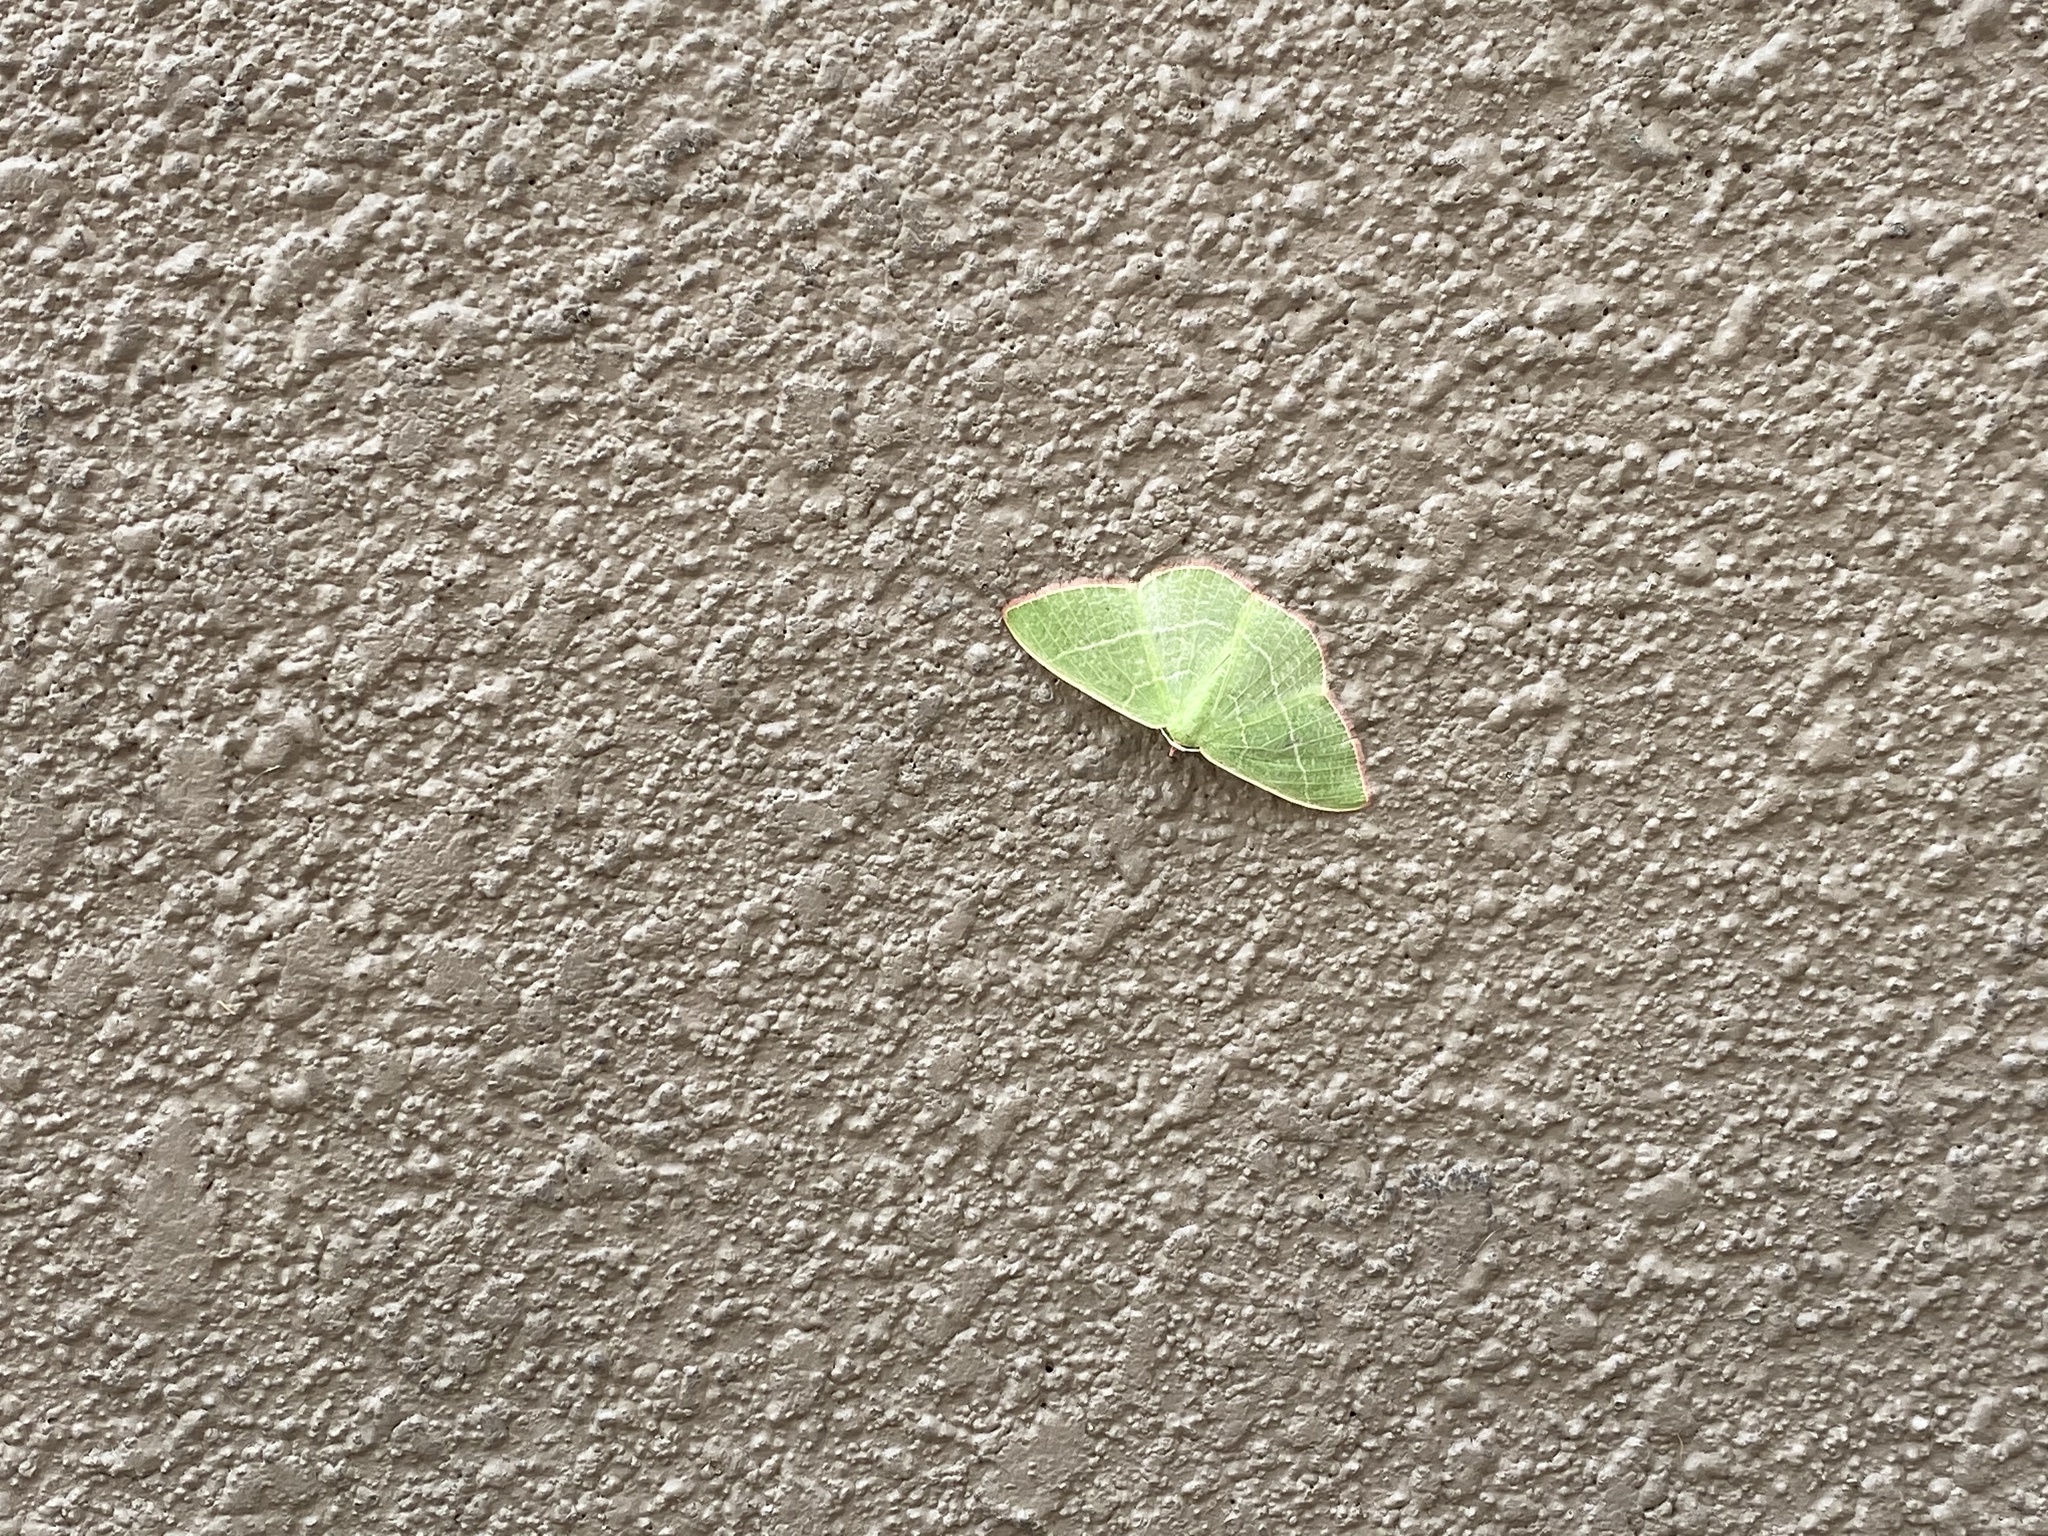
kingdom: Animalia
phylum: Arthropoda
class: Insecta
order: Lepidoptera
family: Geometridae
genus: Nemoria
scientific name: Nemoria leptalea
